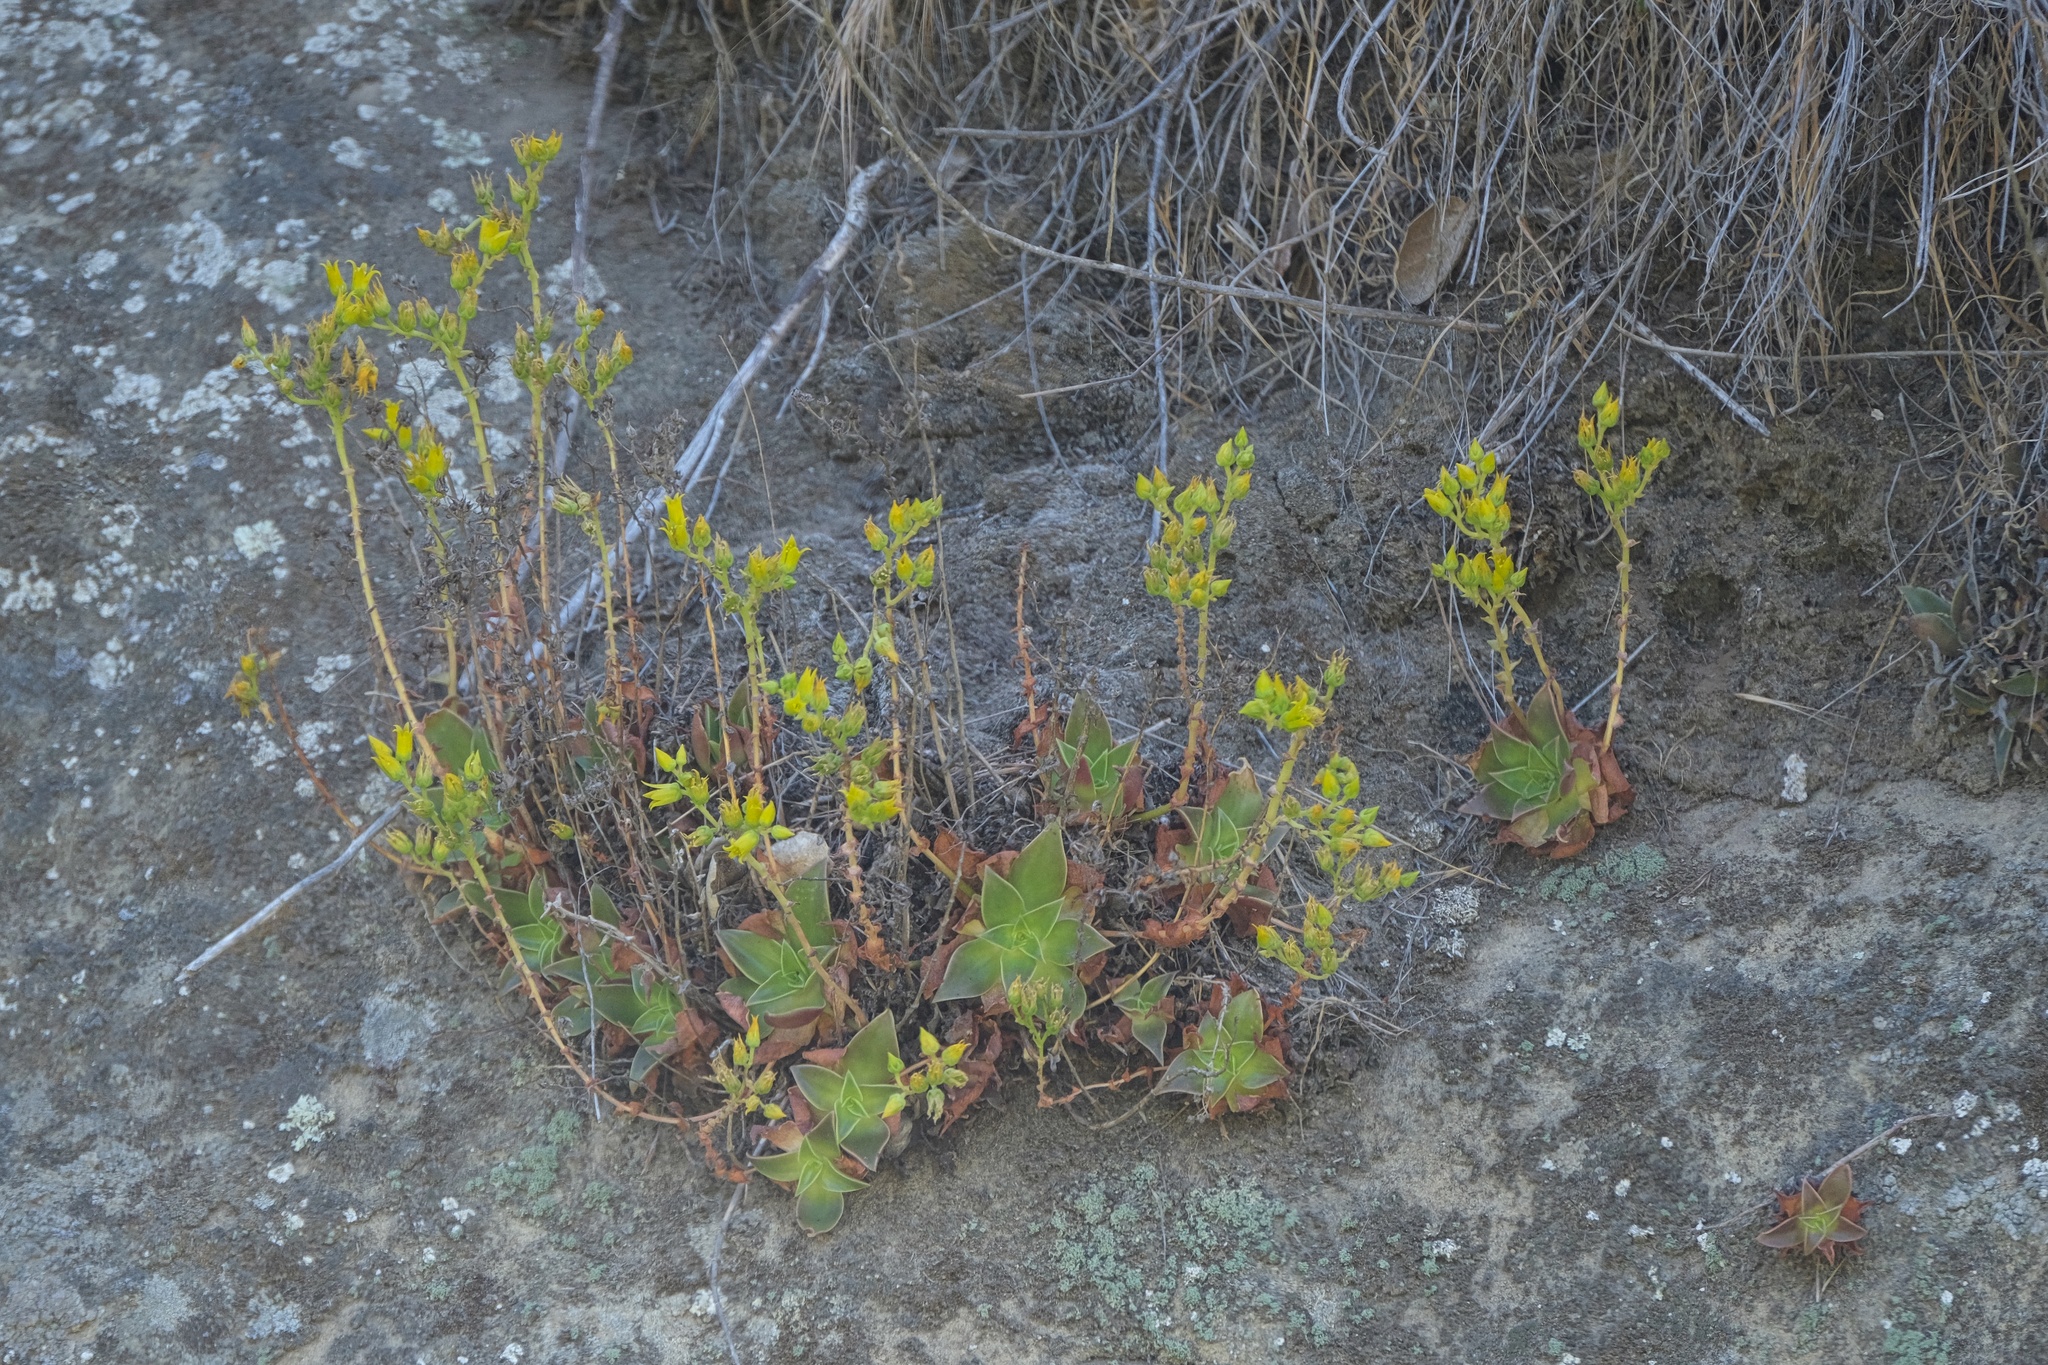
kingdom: Plantae
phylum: Tracheophyta
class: Magnoliopsida
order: Saxifragales
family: Crassulaceae
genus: Dudleya
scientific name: Dudleya stolonifera
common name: Laguna beach dudleya
